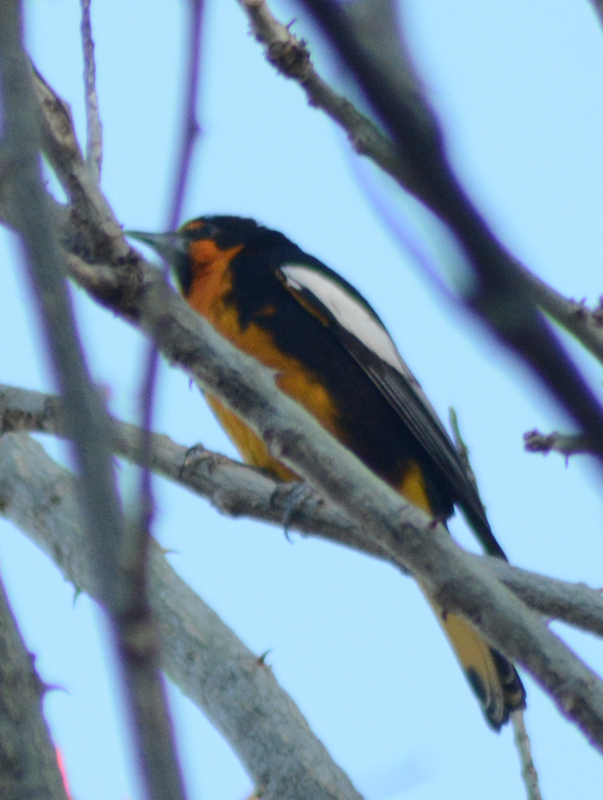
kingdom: Animalia
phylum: Chordata
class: Aves
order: Passeriformes
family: Icteridae
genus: Icterus
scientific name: Icterus abeillei
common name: Black-backed oriole
